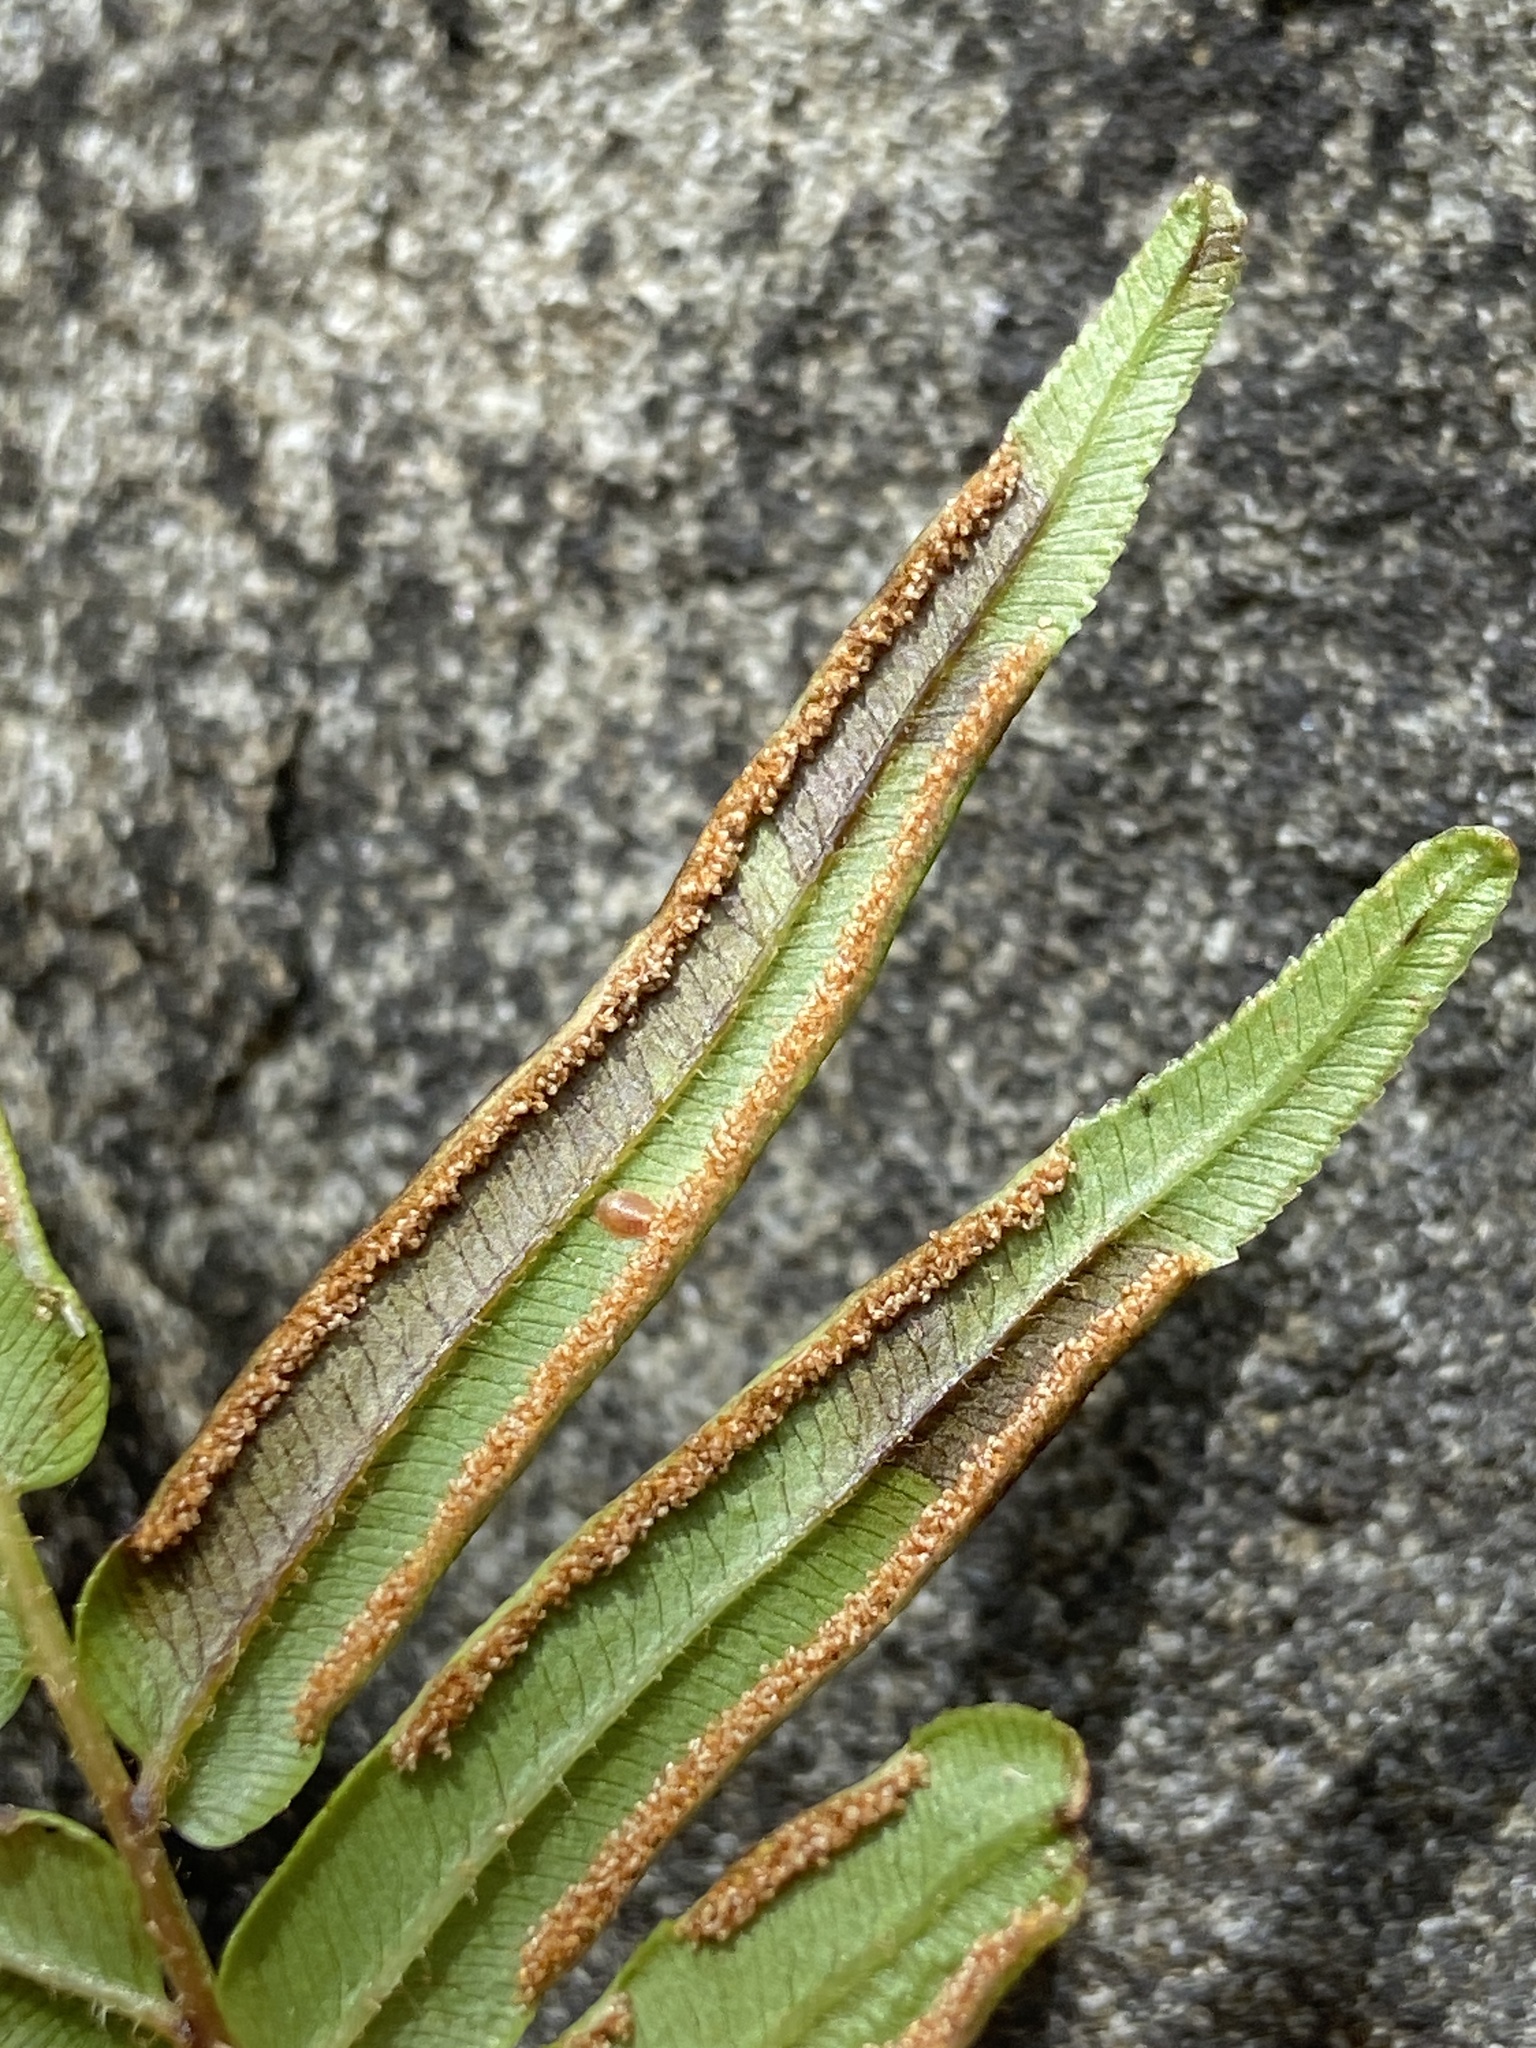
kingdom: Plantae
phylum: Tracheophyta
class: Polypodiopsida
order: Polypodiales
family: Pteridaceae
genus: Pteris
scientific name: Pteris vittata
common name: Ladder brake
